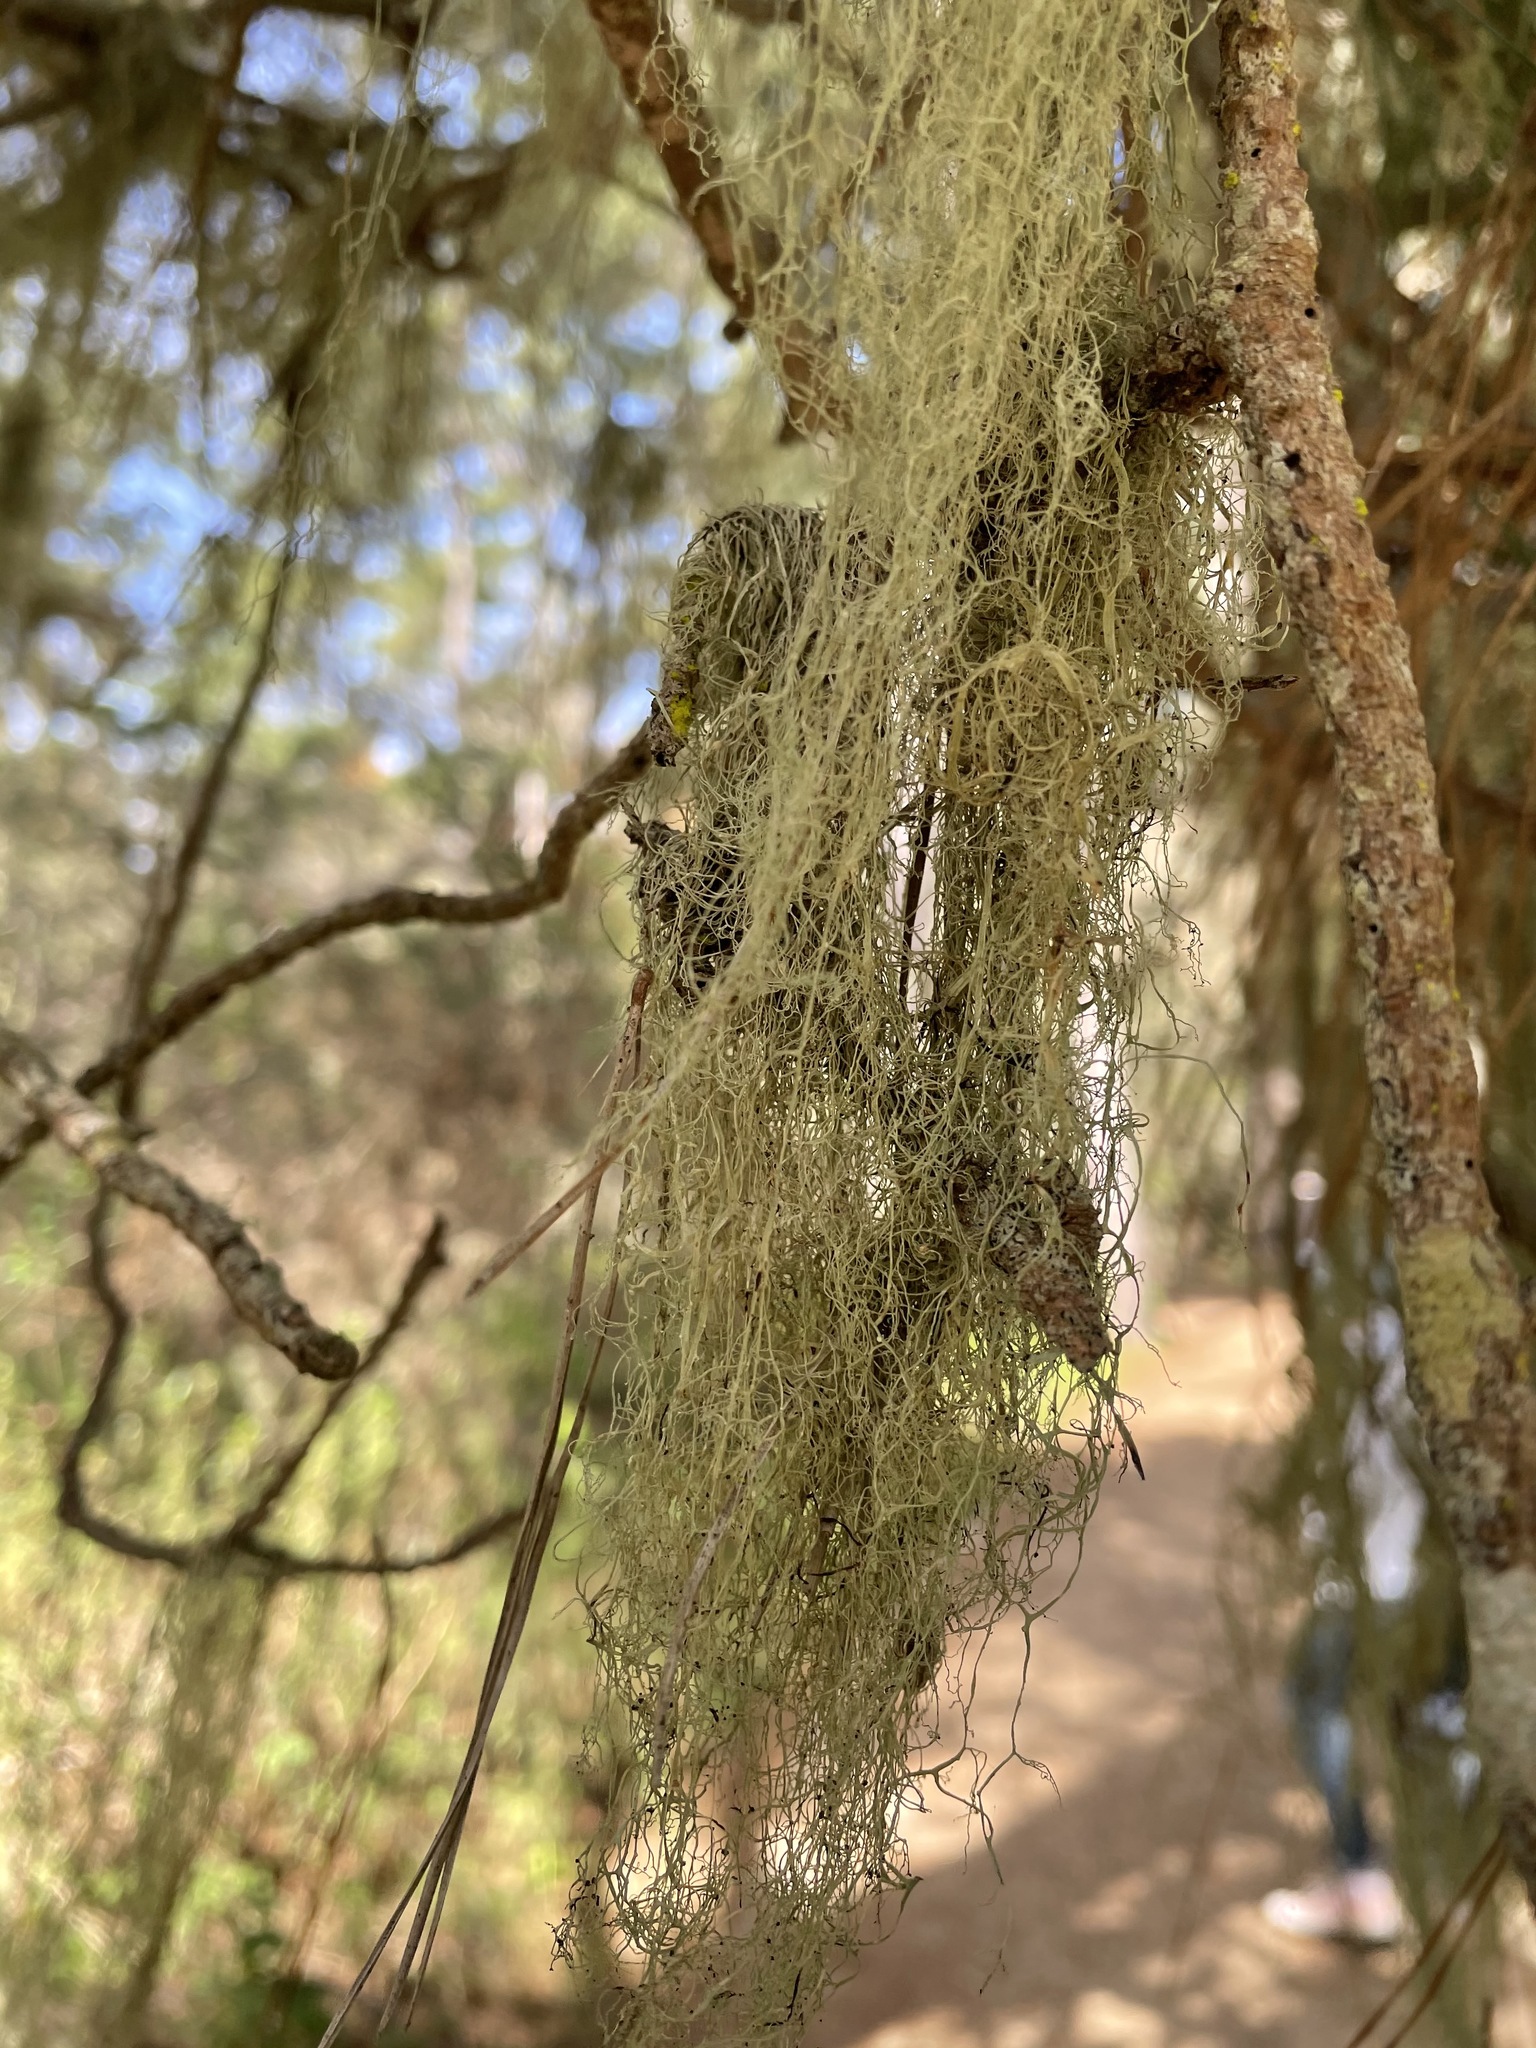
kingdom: Fungi
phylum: Ascomycota
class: Lecanoromycetes
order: Lecanorales
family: Ramalinaceae
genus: Ramalina
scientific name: Ramalina menziesii
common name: Lace lichen
